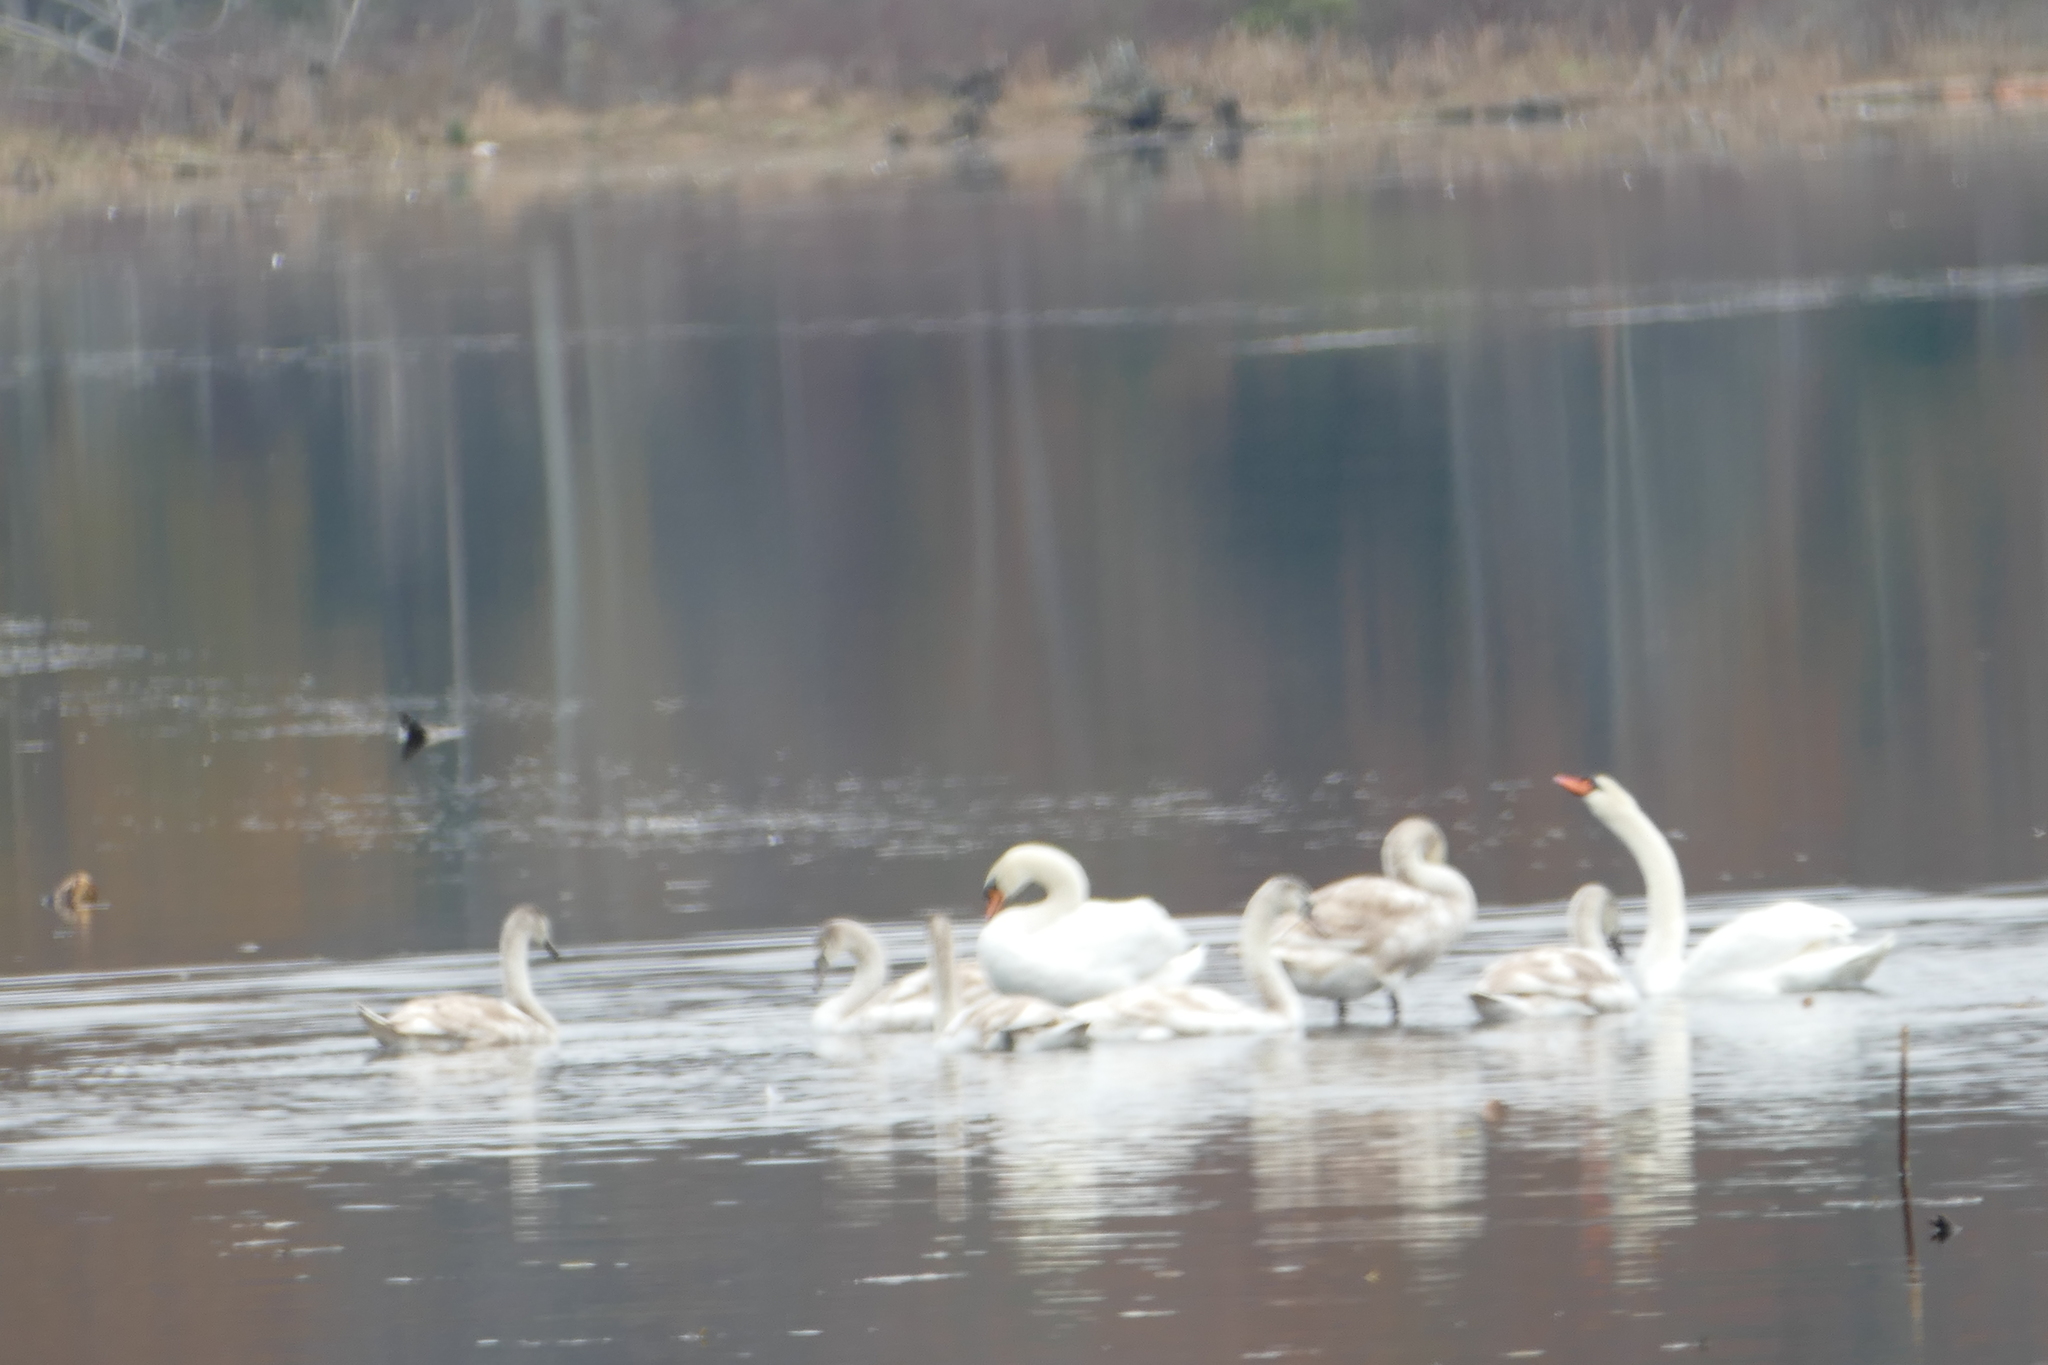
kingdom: Animalia
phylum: Chordata
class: Aves
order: Anseriformes
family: Anatidae
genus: Cygnus
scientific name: Cygnus olor
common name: Mute swan
